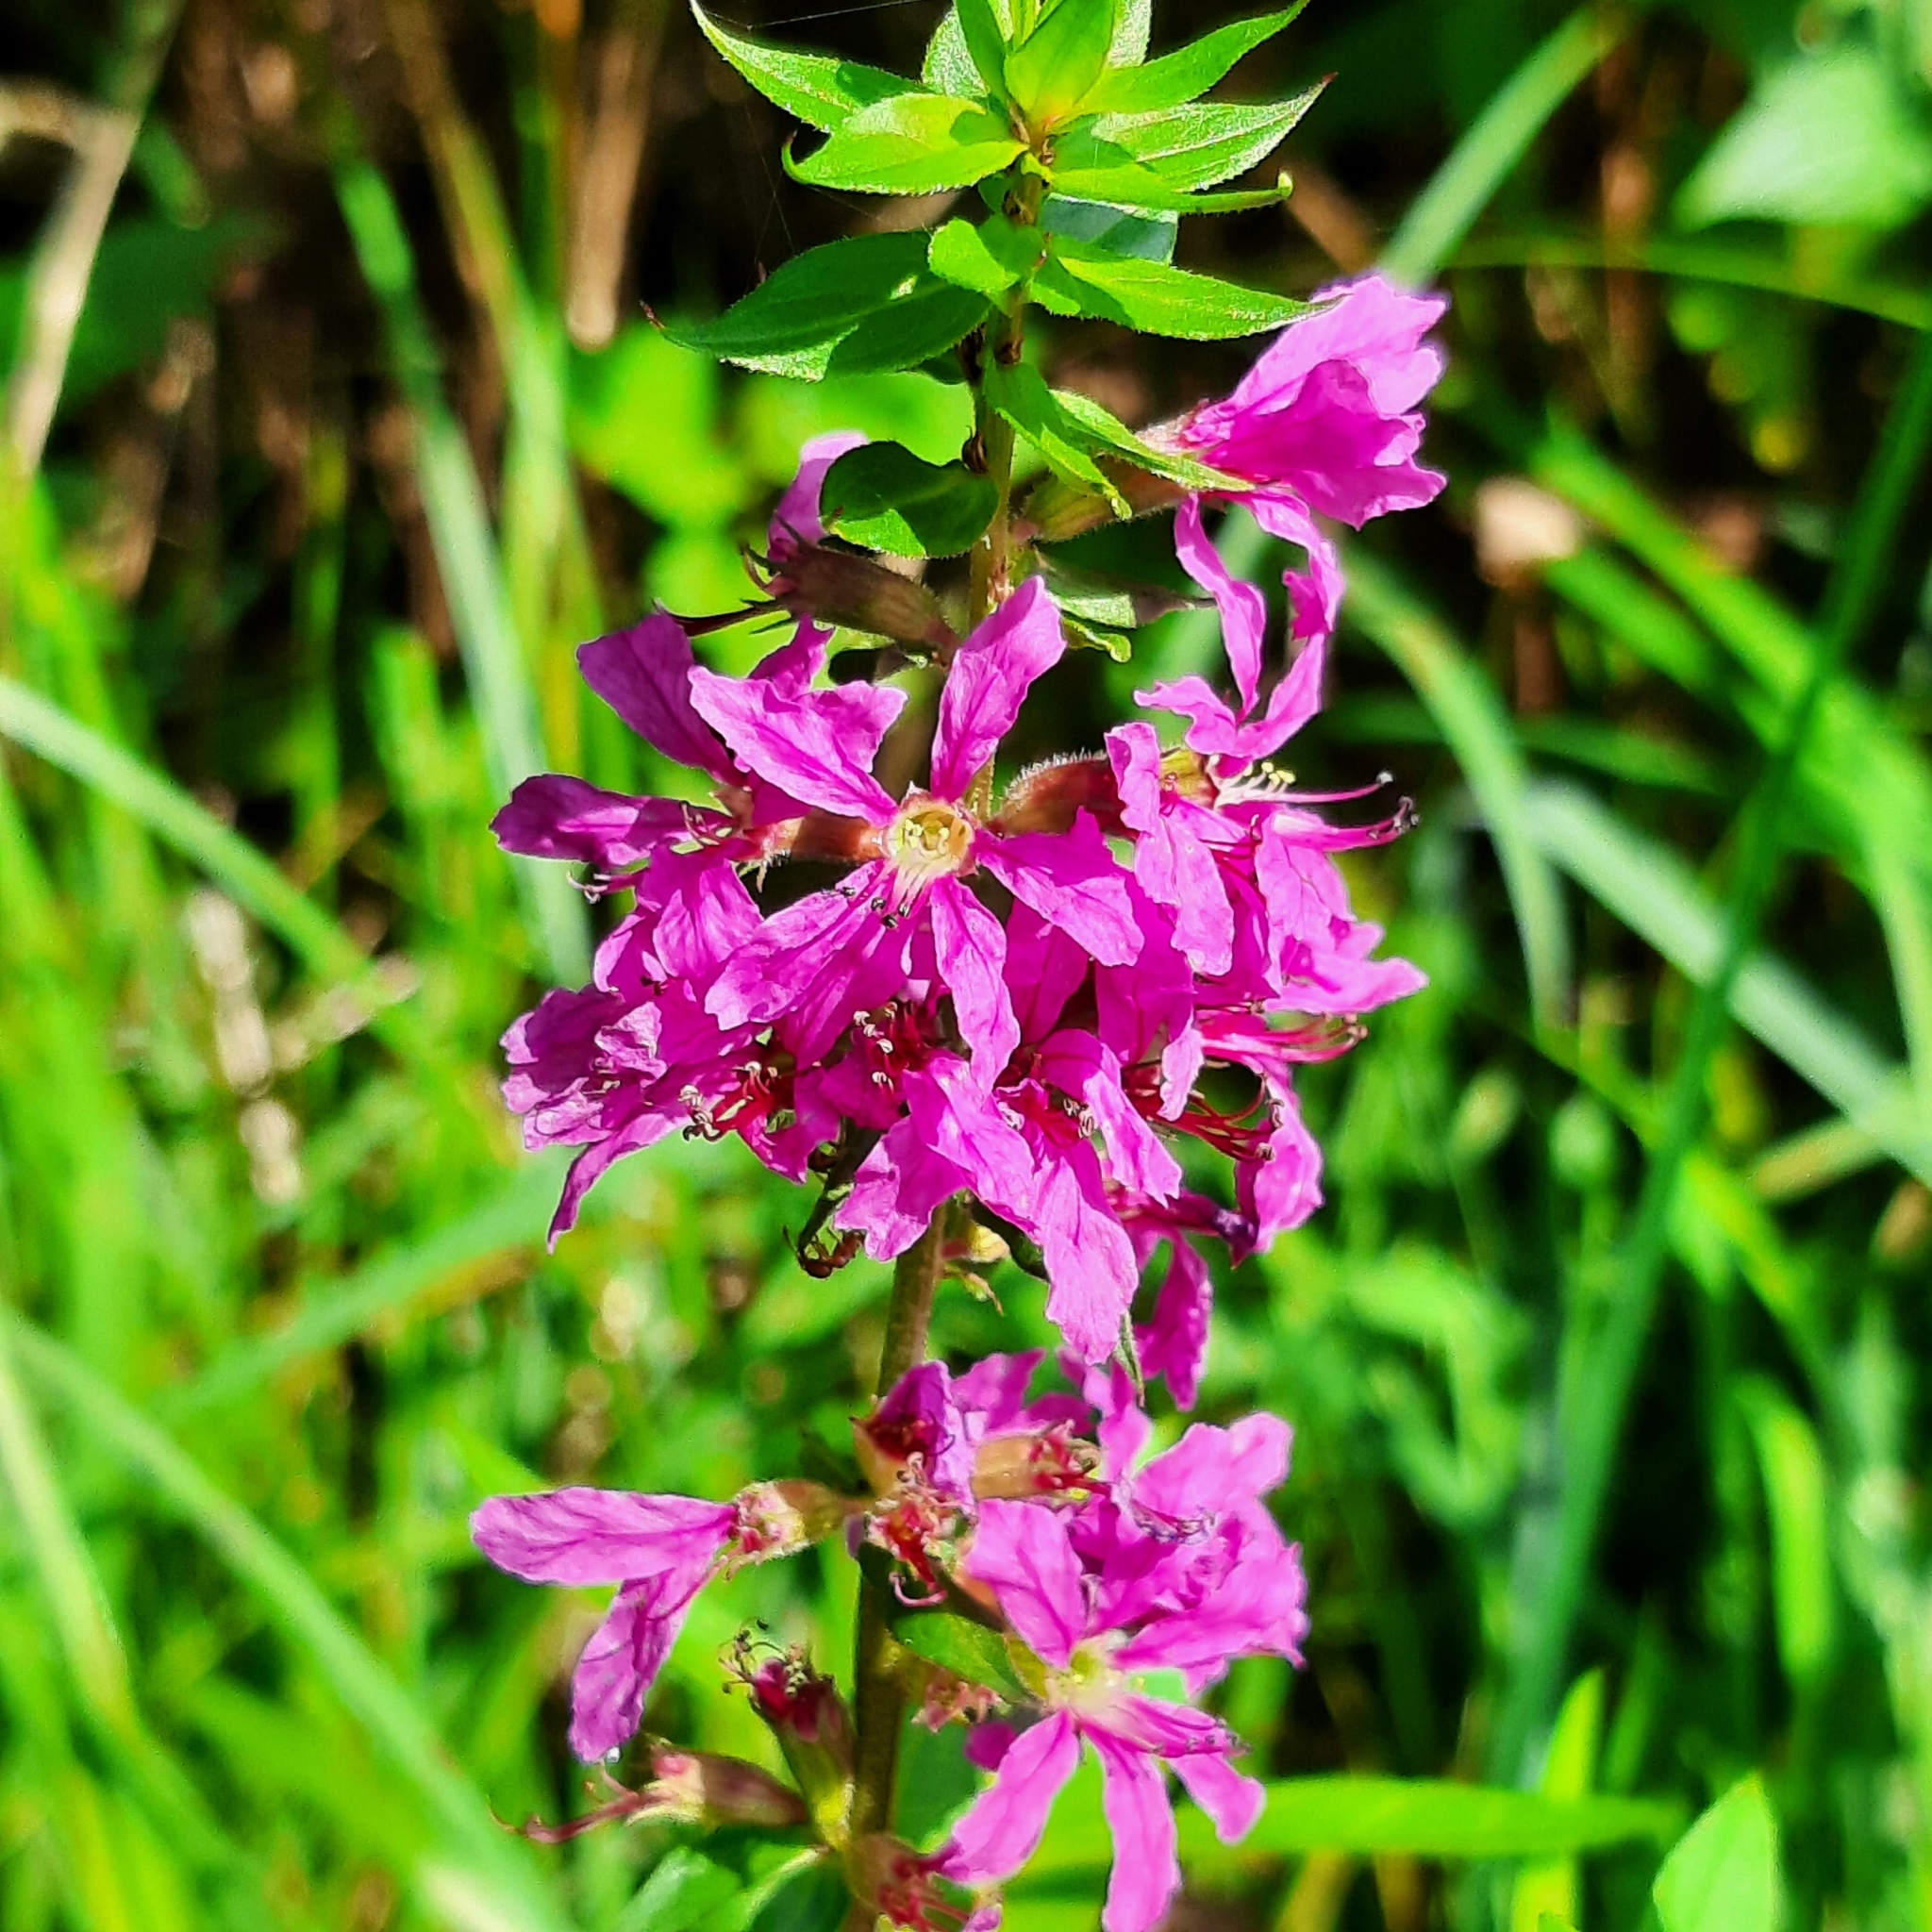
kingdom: Plantae
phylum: Tracheophyta
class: Magnoliopsida
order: Myrtales
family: Lythraceae
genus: Lythrum
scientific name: Lythrum salicaria
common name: Purple loosestrife
